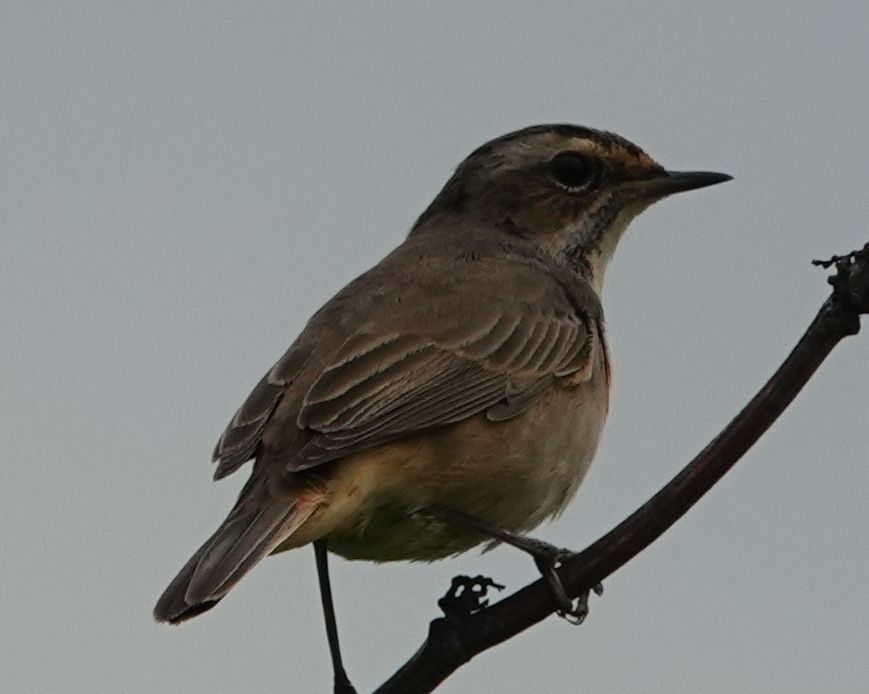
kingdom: Animalia
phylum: Chordata
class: Aves
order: Passeriformes
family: Muscicapidae
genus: Luscinia
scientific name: Luscinia svecica
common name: Bluethroat
